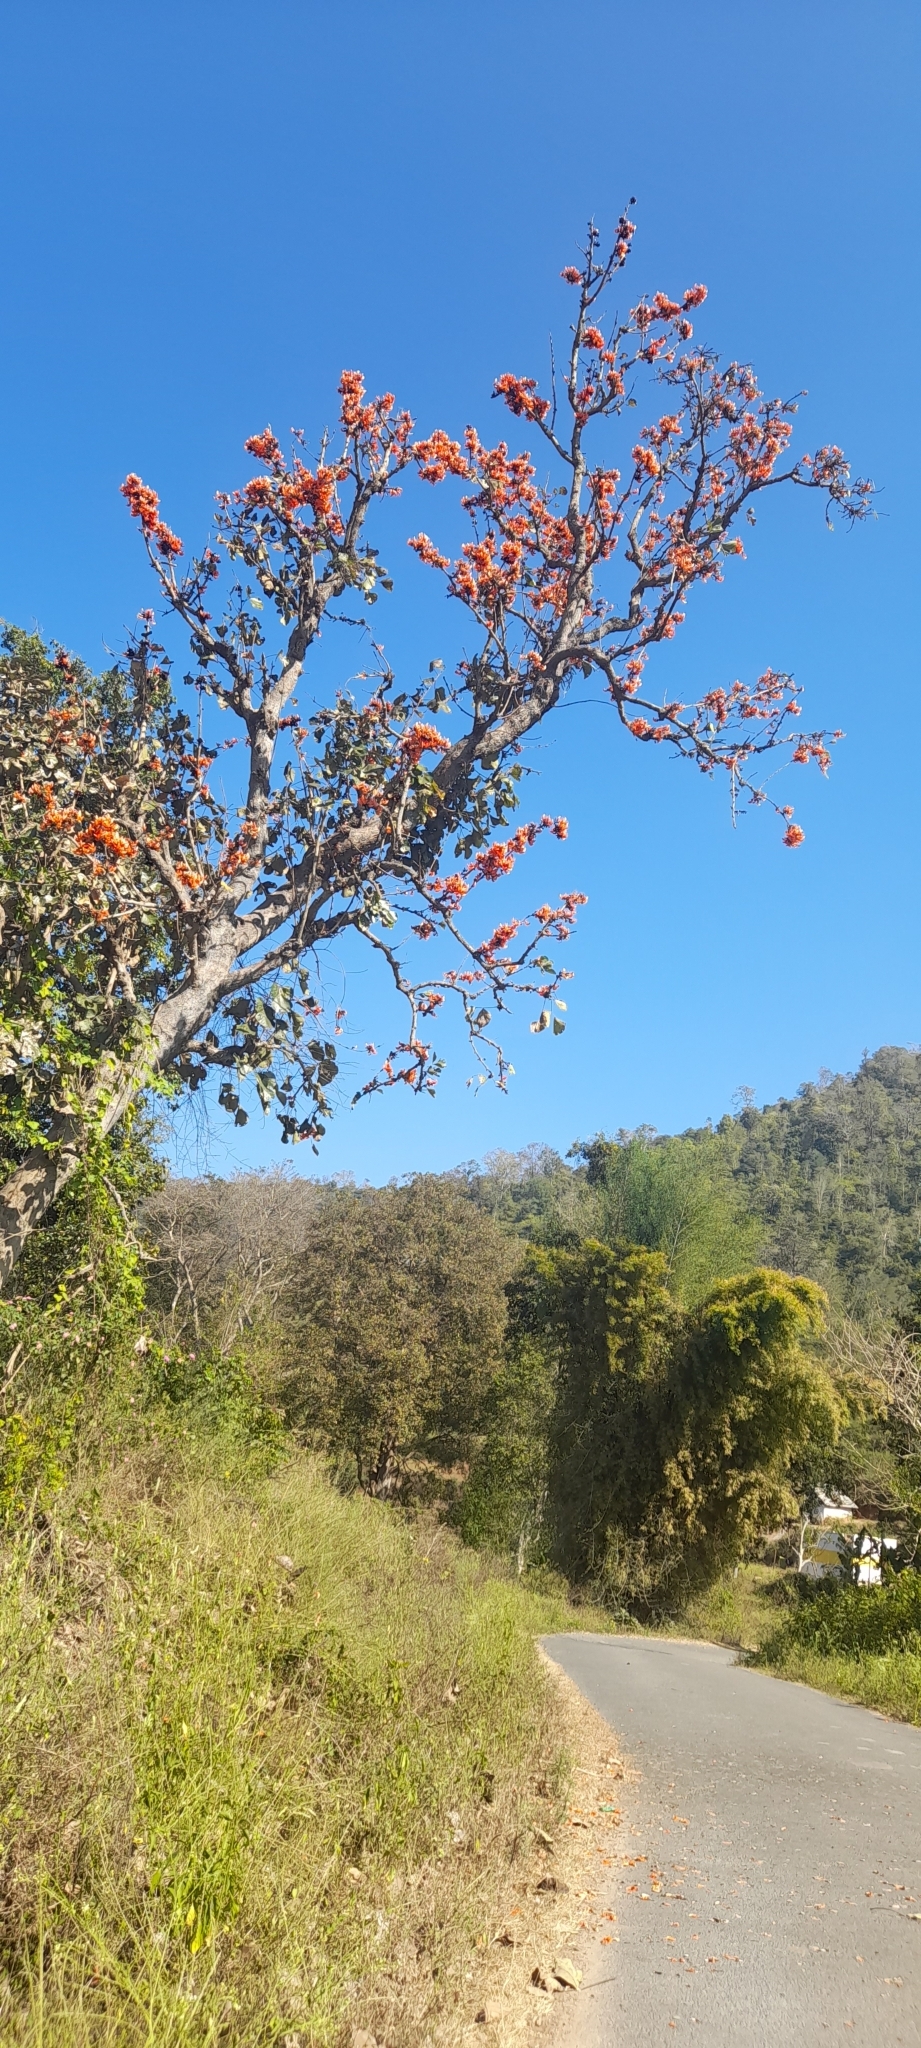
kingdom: Plantae
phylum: Tracheophyta
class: Magnoliopsida
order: Fabales
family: Fabaceae
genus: Butea
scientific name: Butea monosperma
